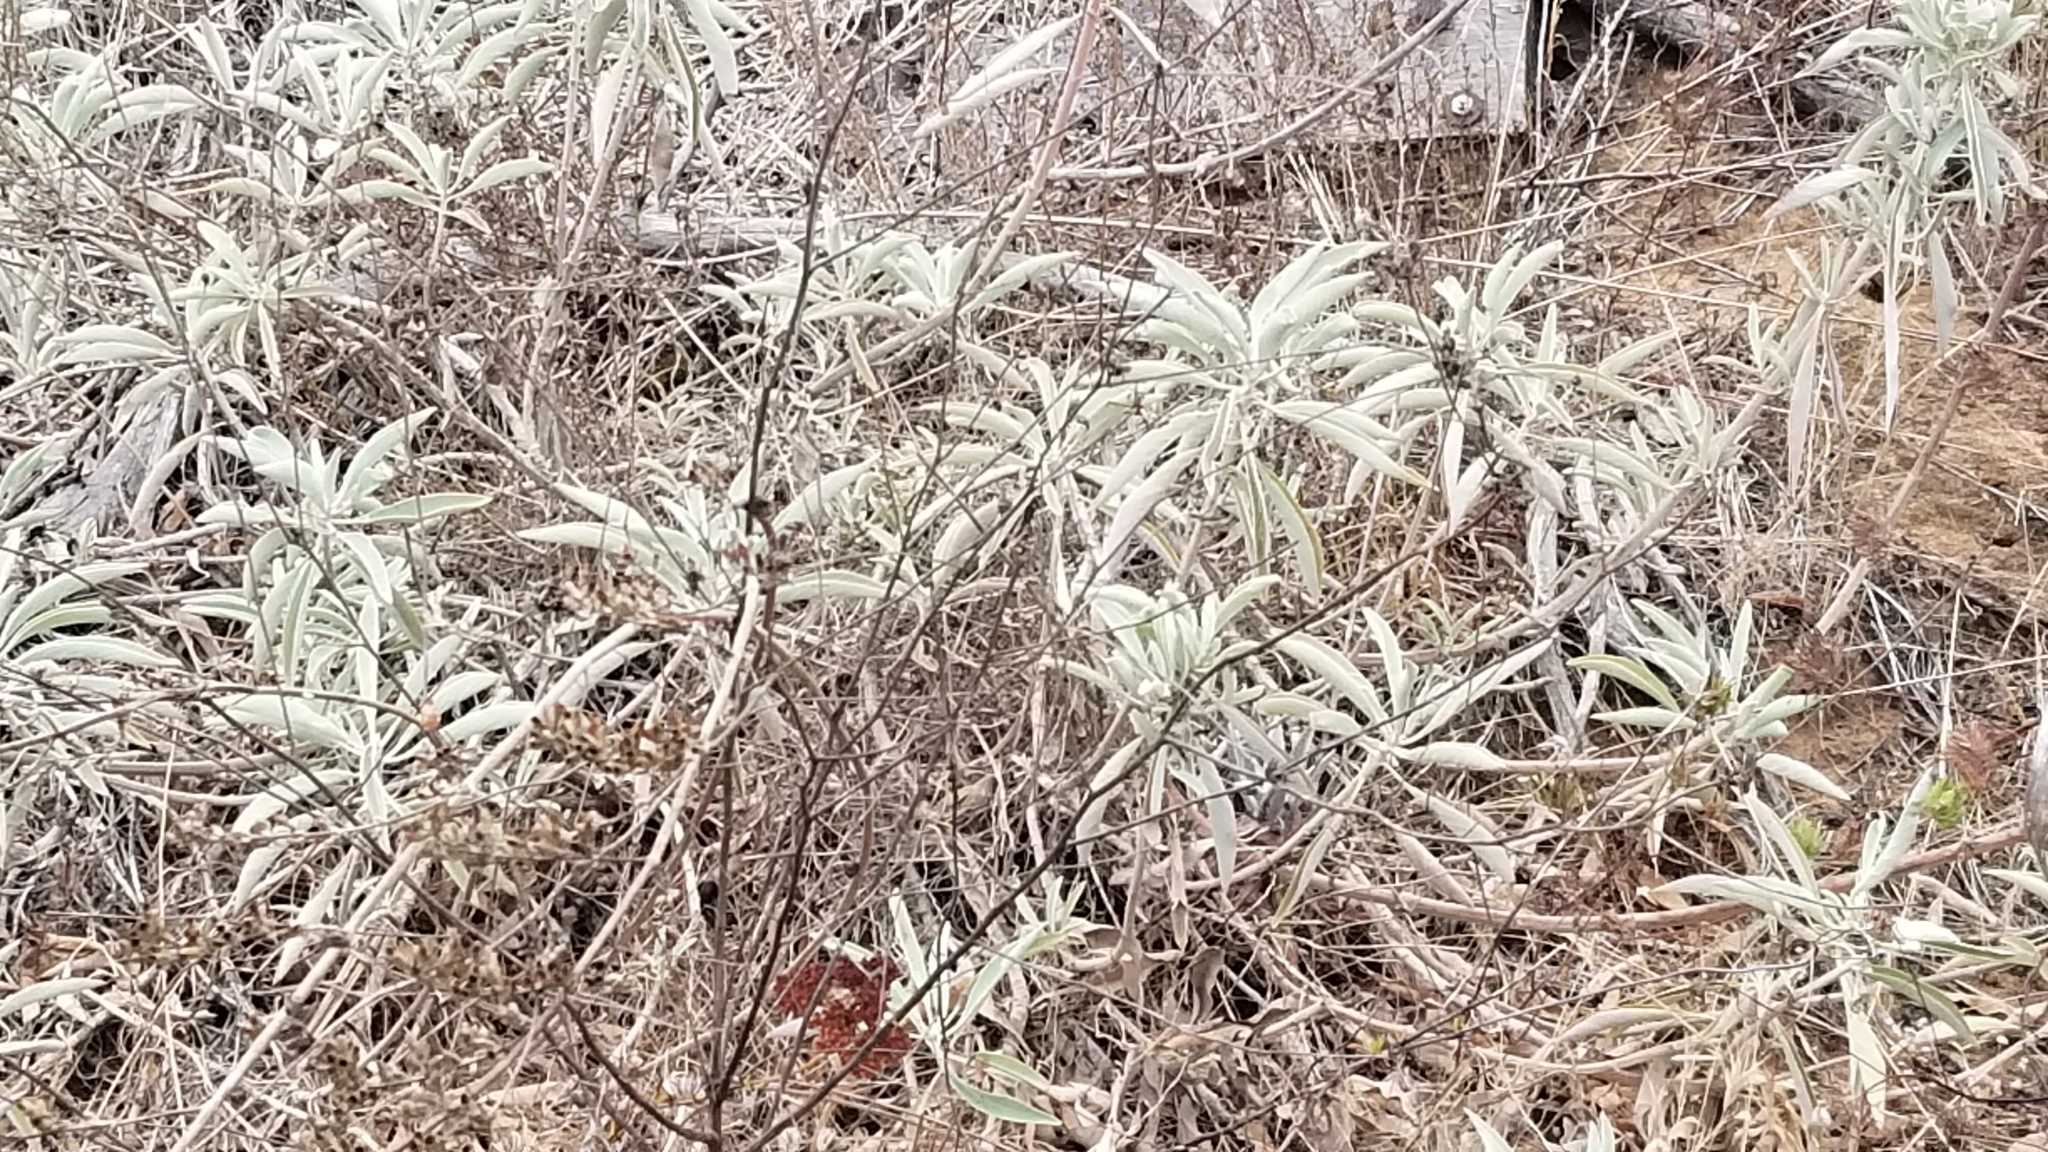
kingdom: Plantae
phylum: Tracheophyta
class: Magnoliopsida
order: Lamiales
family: Lamiaceae
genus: Salvia
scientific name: Salvia apiana
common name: White sage
